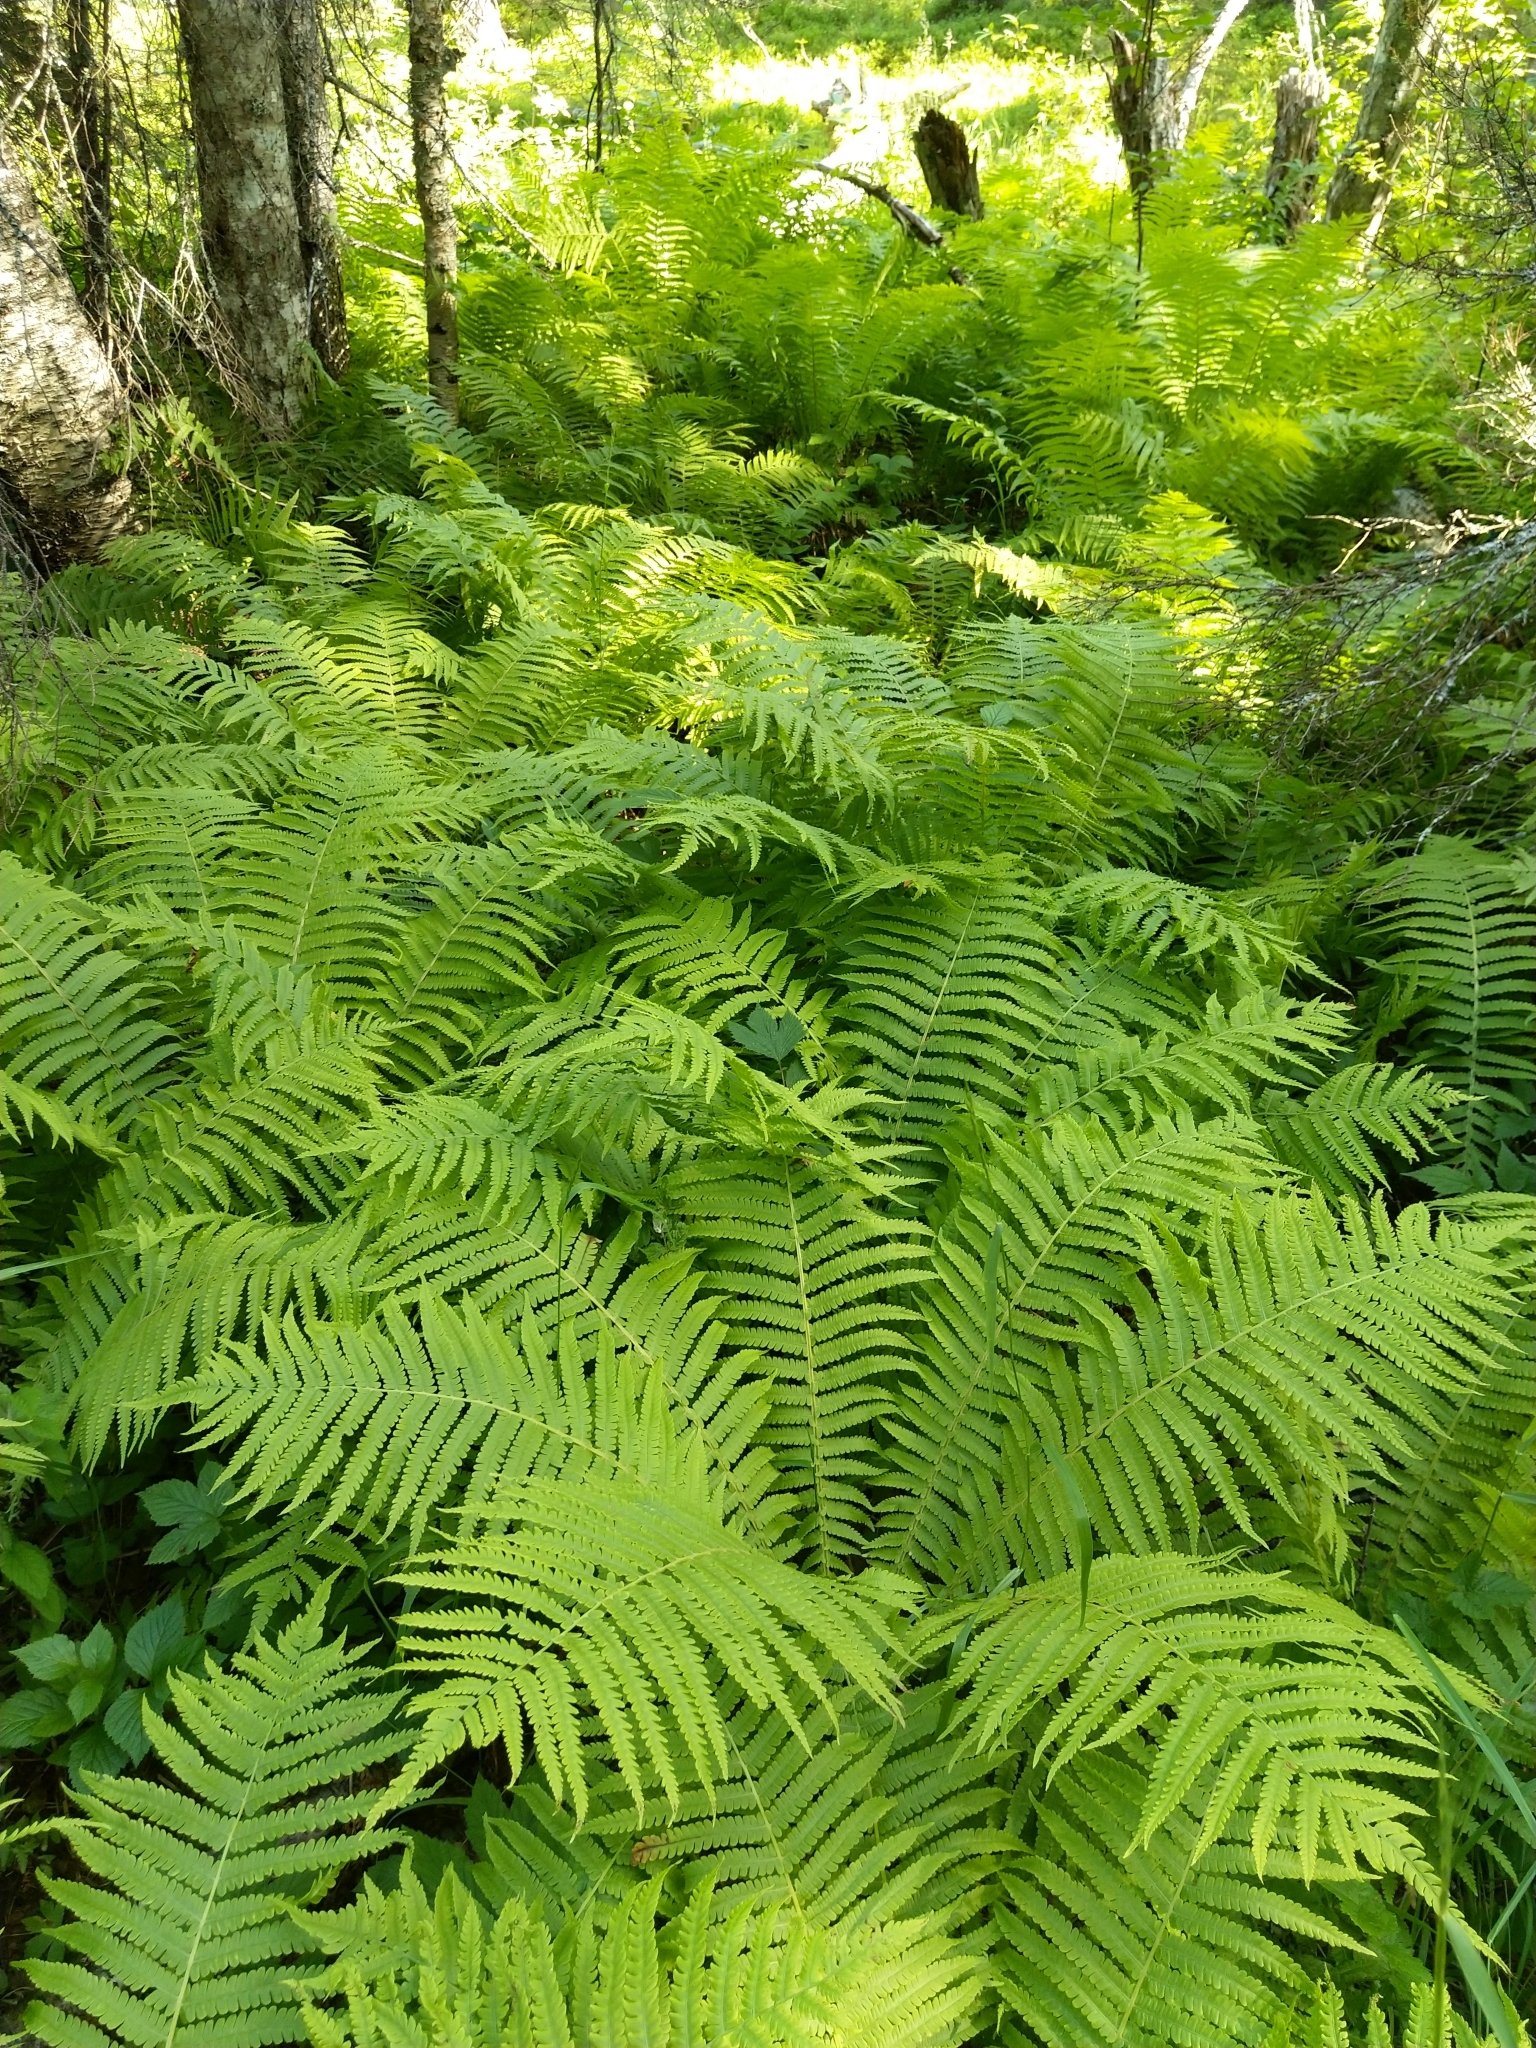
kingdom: Plantae
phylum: Tracheophyta
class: Polypodiopsida
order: Polypodiales
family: Onocleaceae
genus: Matteuccia
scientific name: Matteuccia struthiopteris
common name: Ostrich fern
